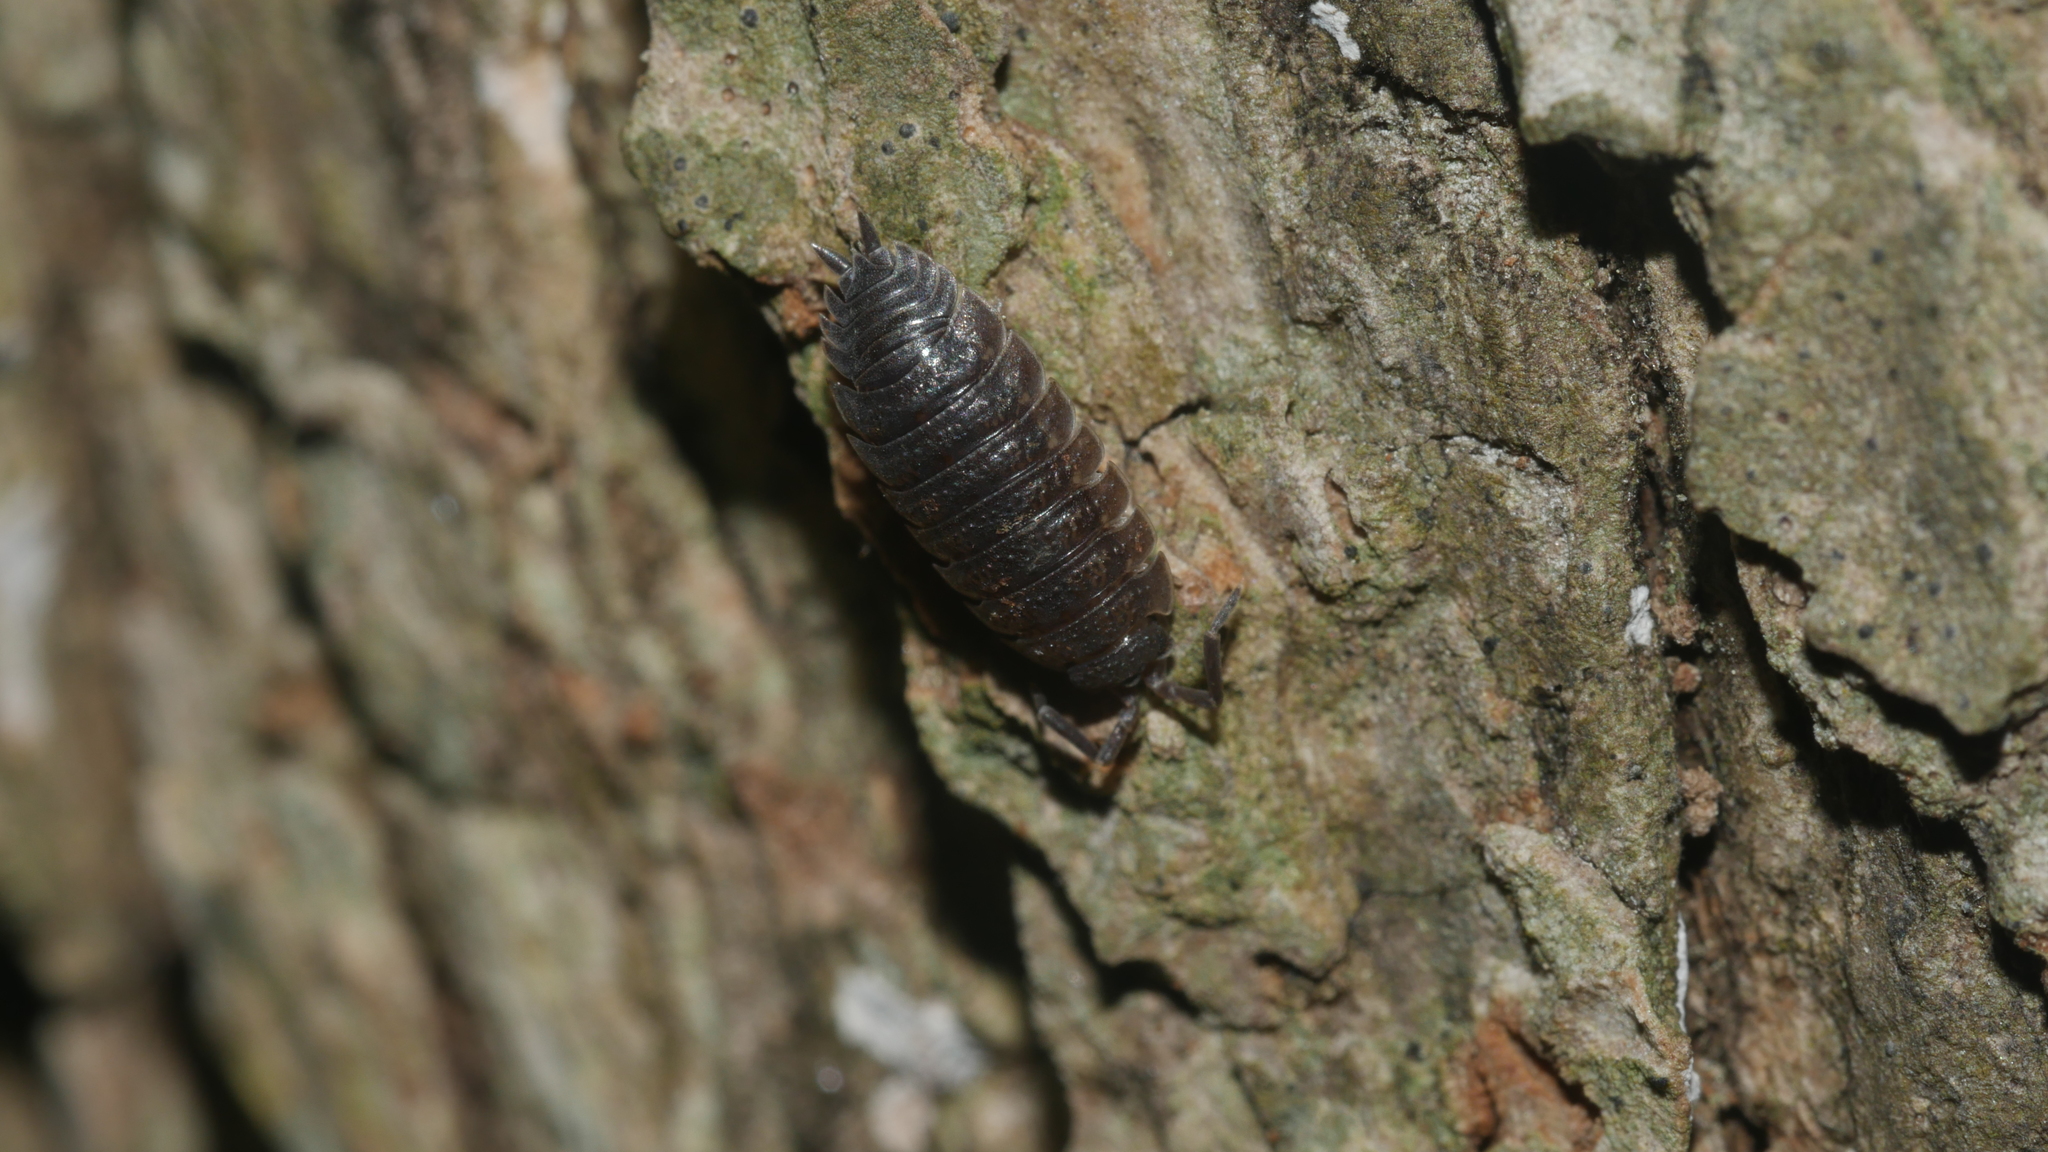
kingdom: Animalia
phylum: Arthropoda
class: Malacostraca
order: Isopoda
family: Porcellionidae
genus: Porcellio
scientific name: Porcellio scaber
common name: Common rough woodlouse
